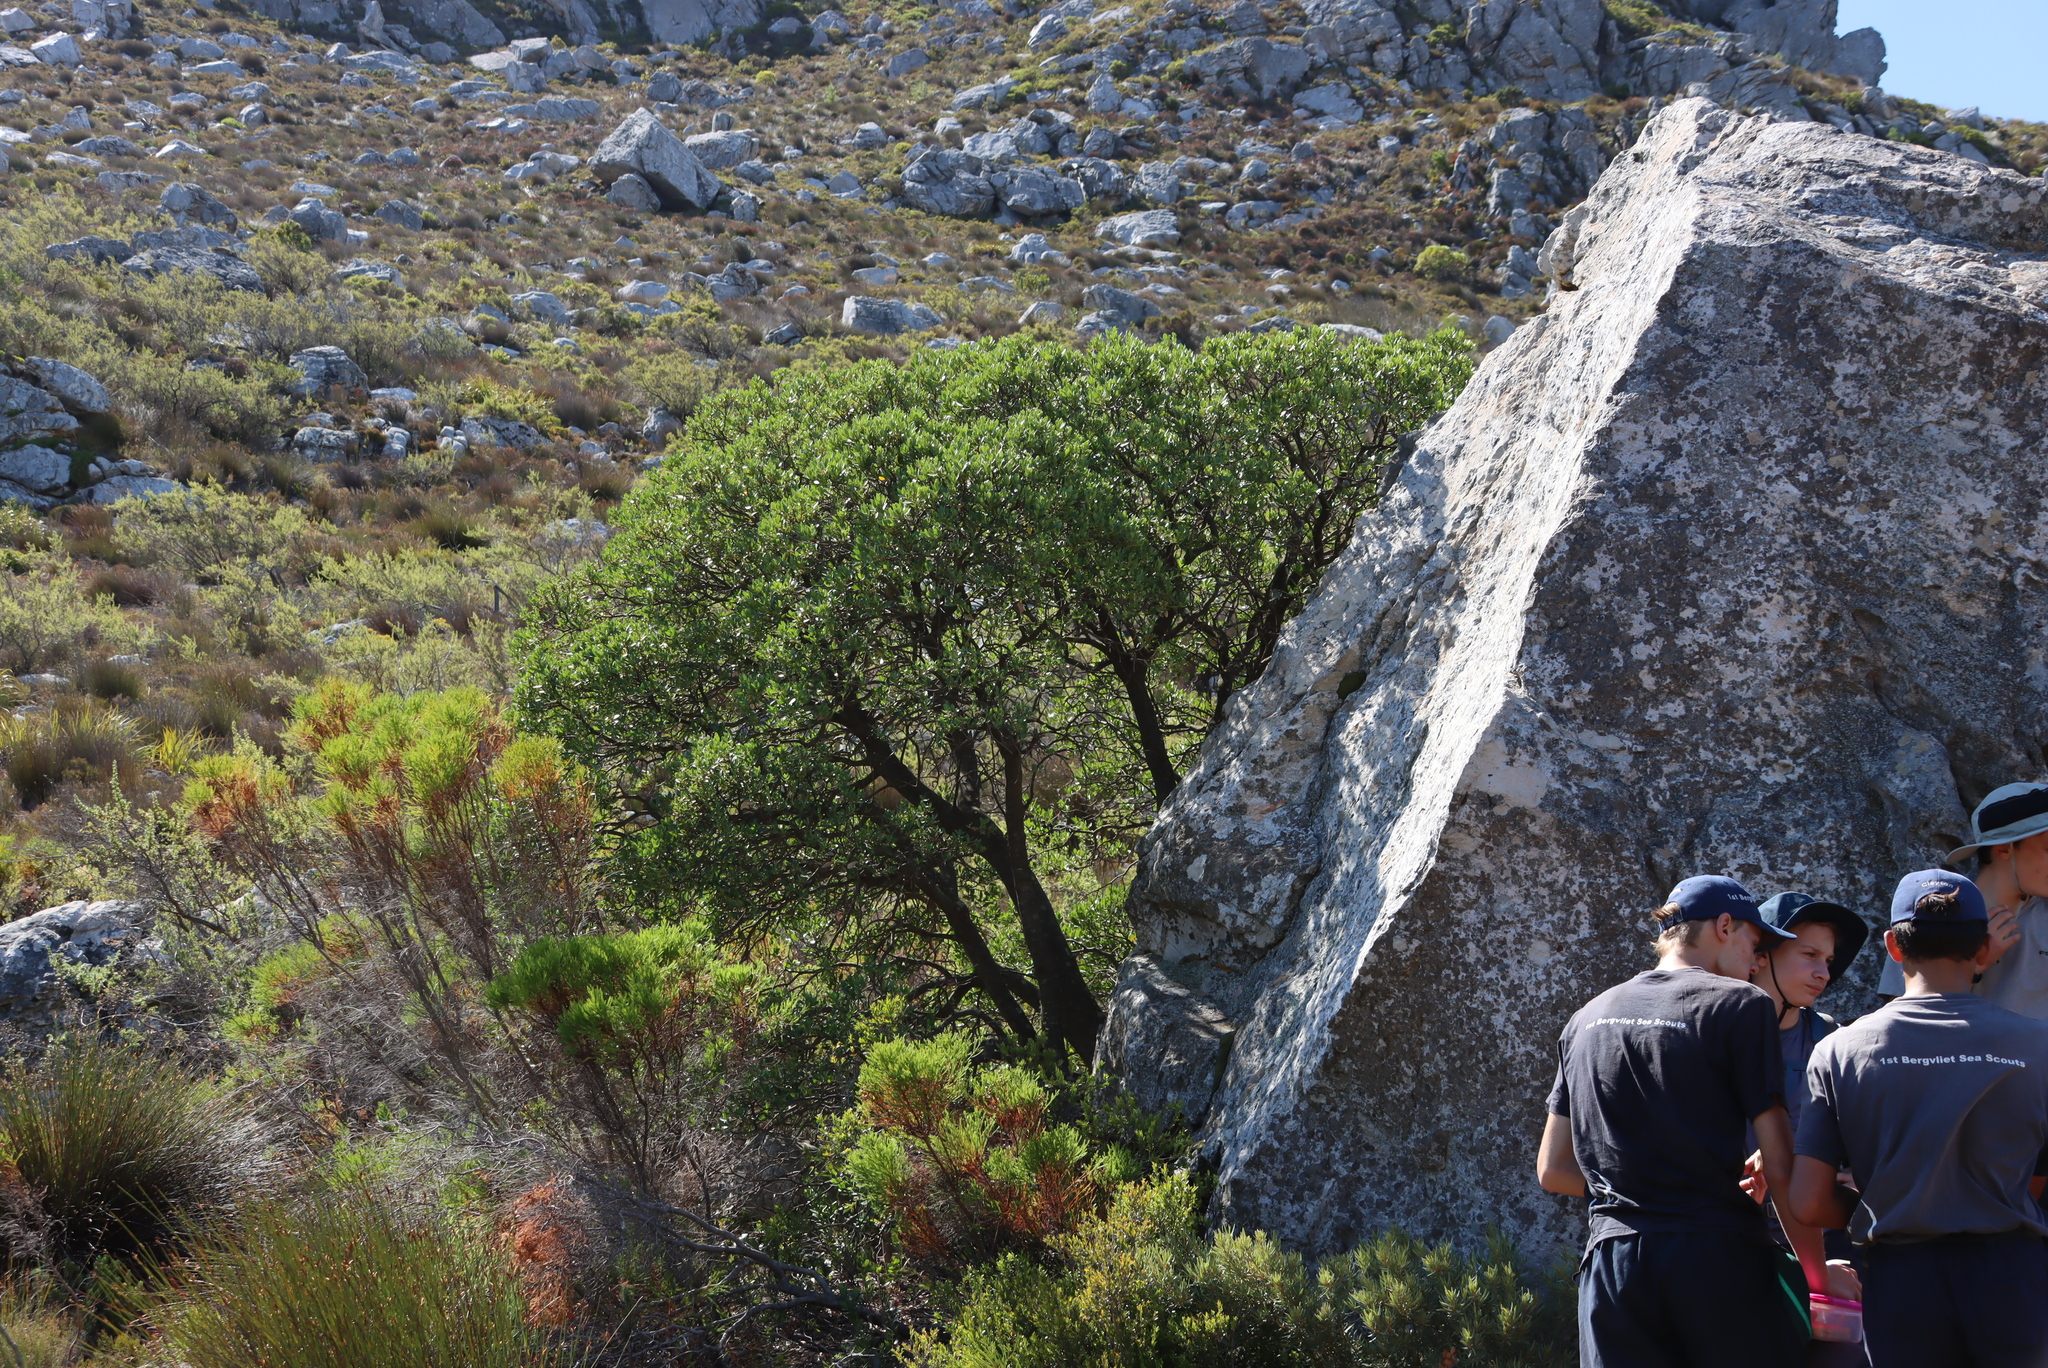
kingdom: Plantae
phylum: Tracheophyta
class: Magnoliopsida
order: Celastrales
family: Celastraceae
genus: Gymnosporia
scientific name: Gymnosporia laurina
